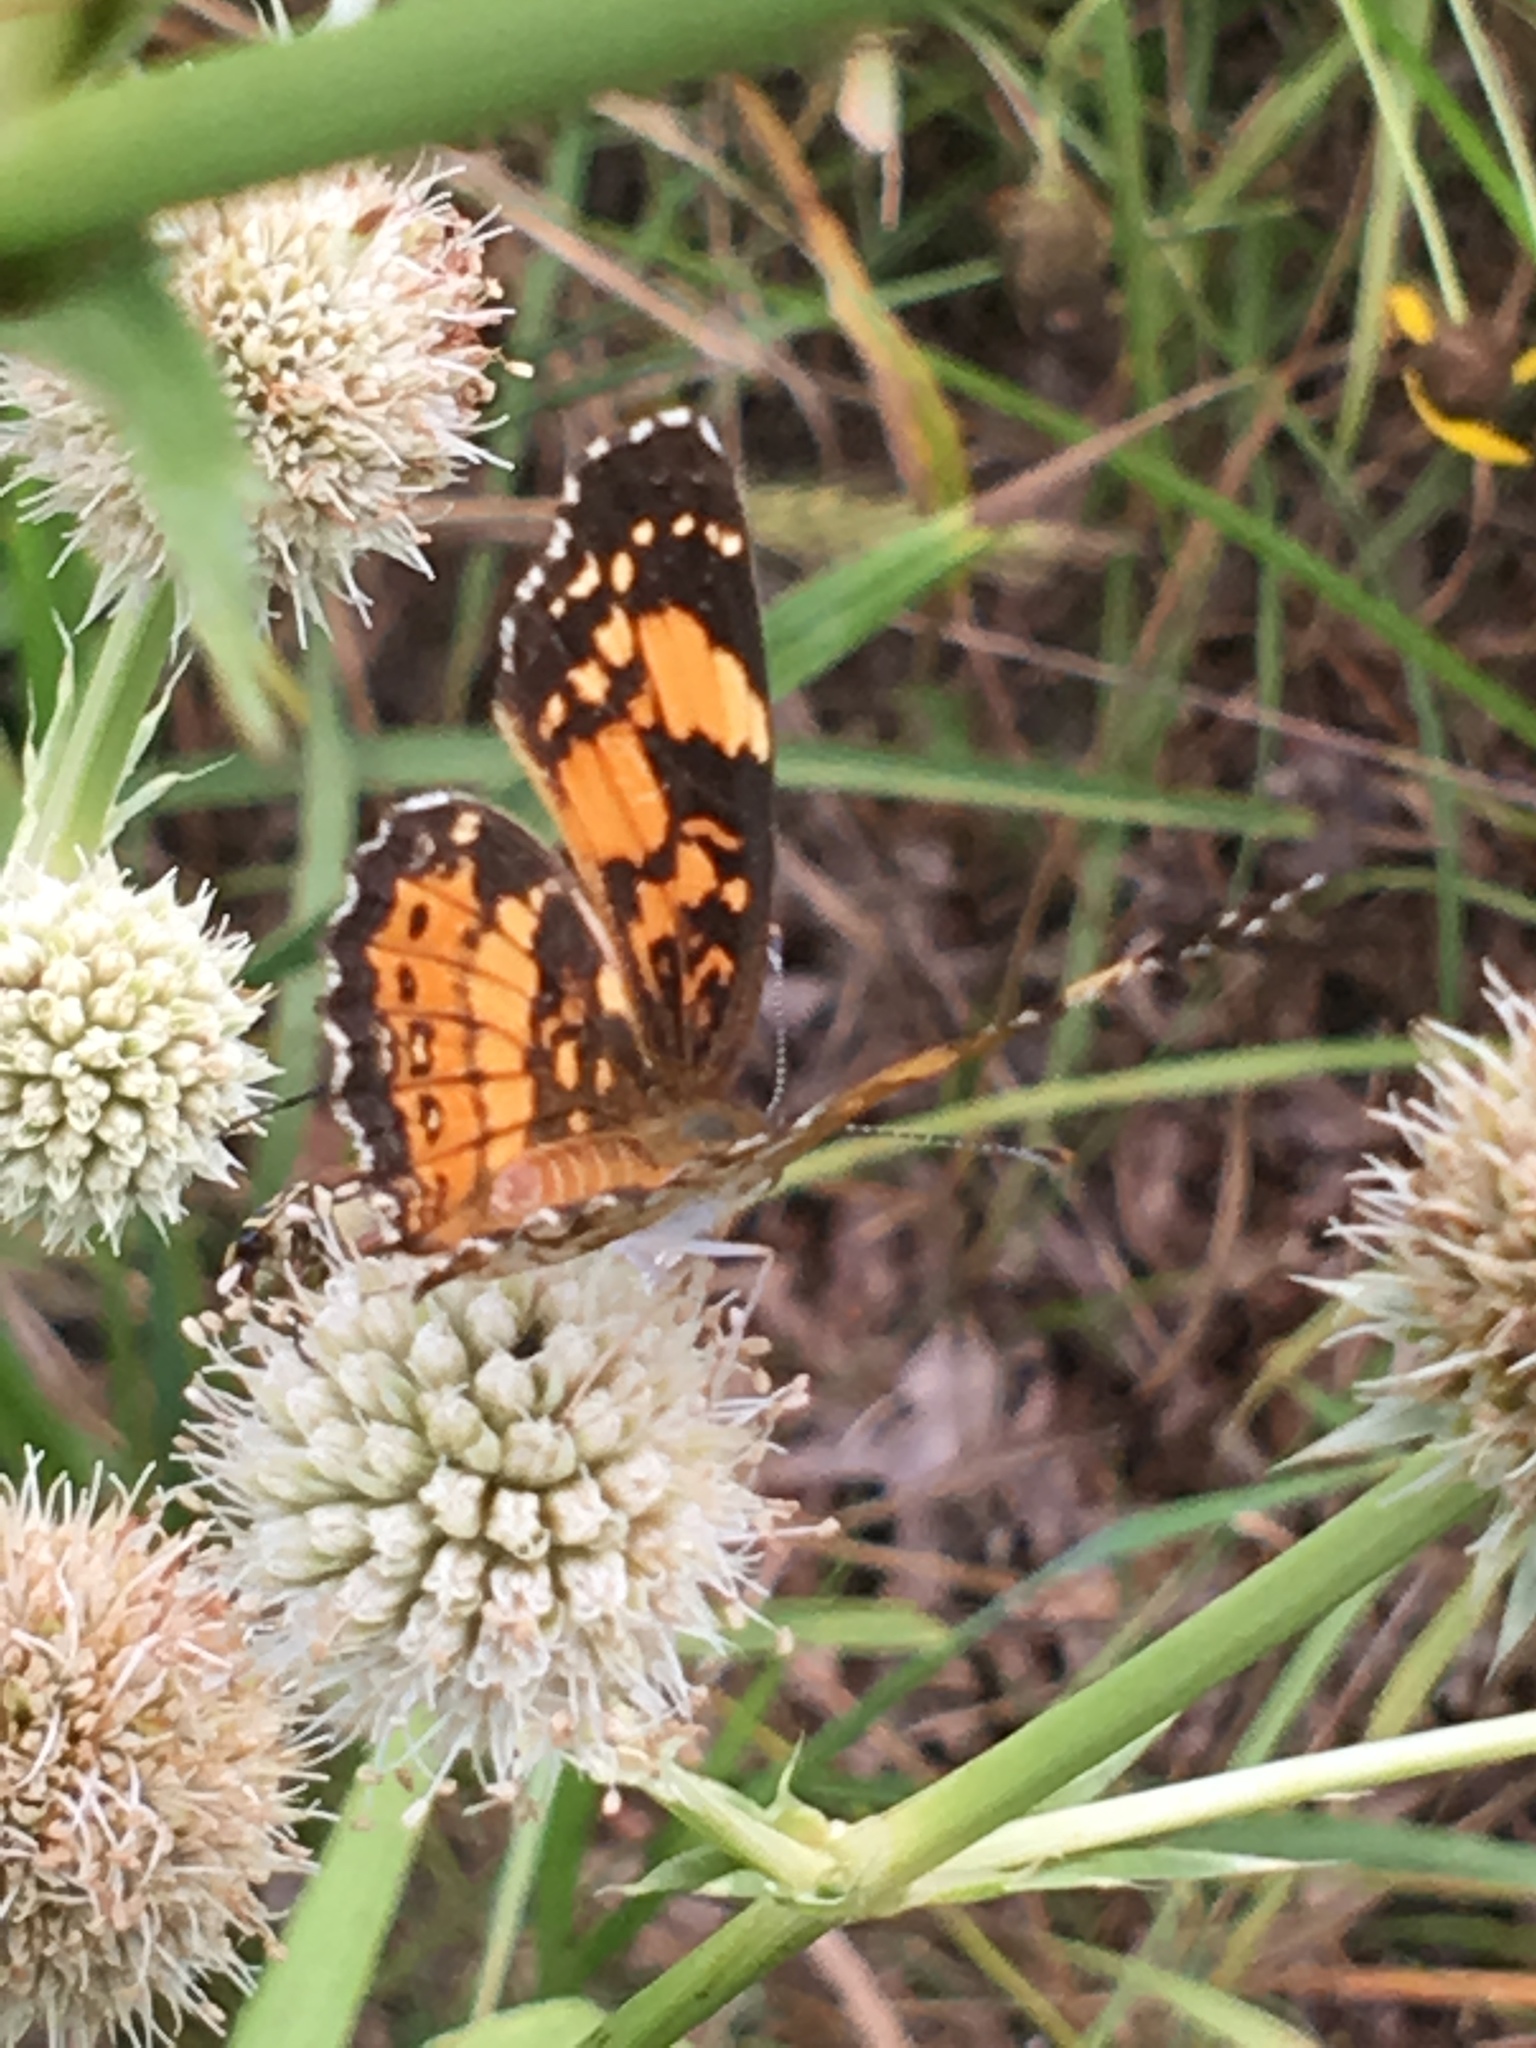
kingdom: Animalia
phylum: Arthropoda
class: Insecta
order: Lepidoptera
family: Nymphalidae
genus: Chlosyne
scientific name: Chlosyne nycteis
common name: Silvery checkerspot
